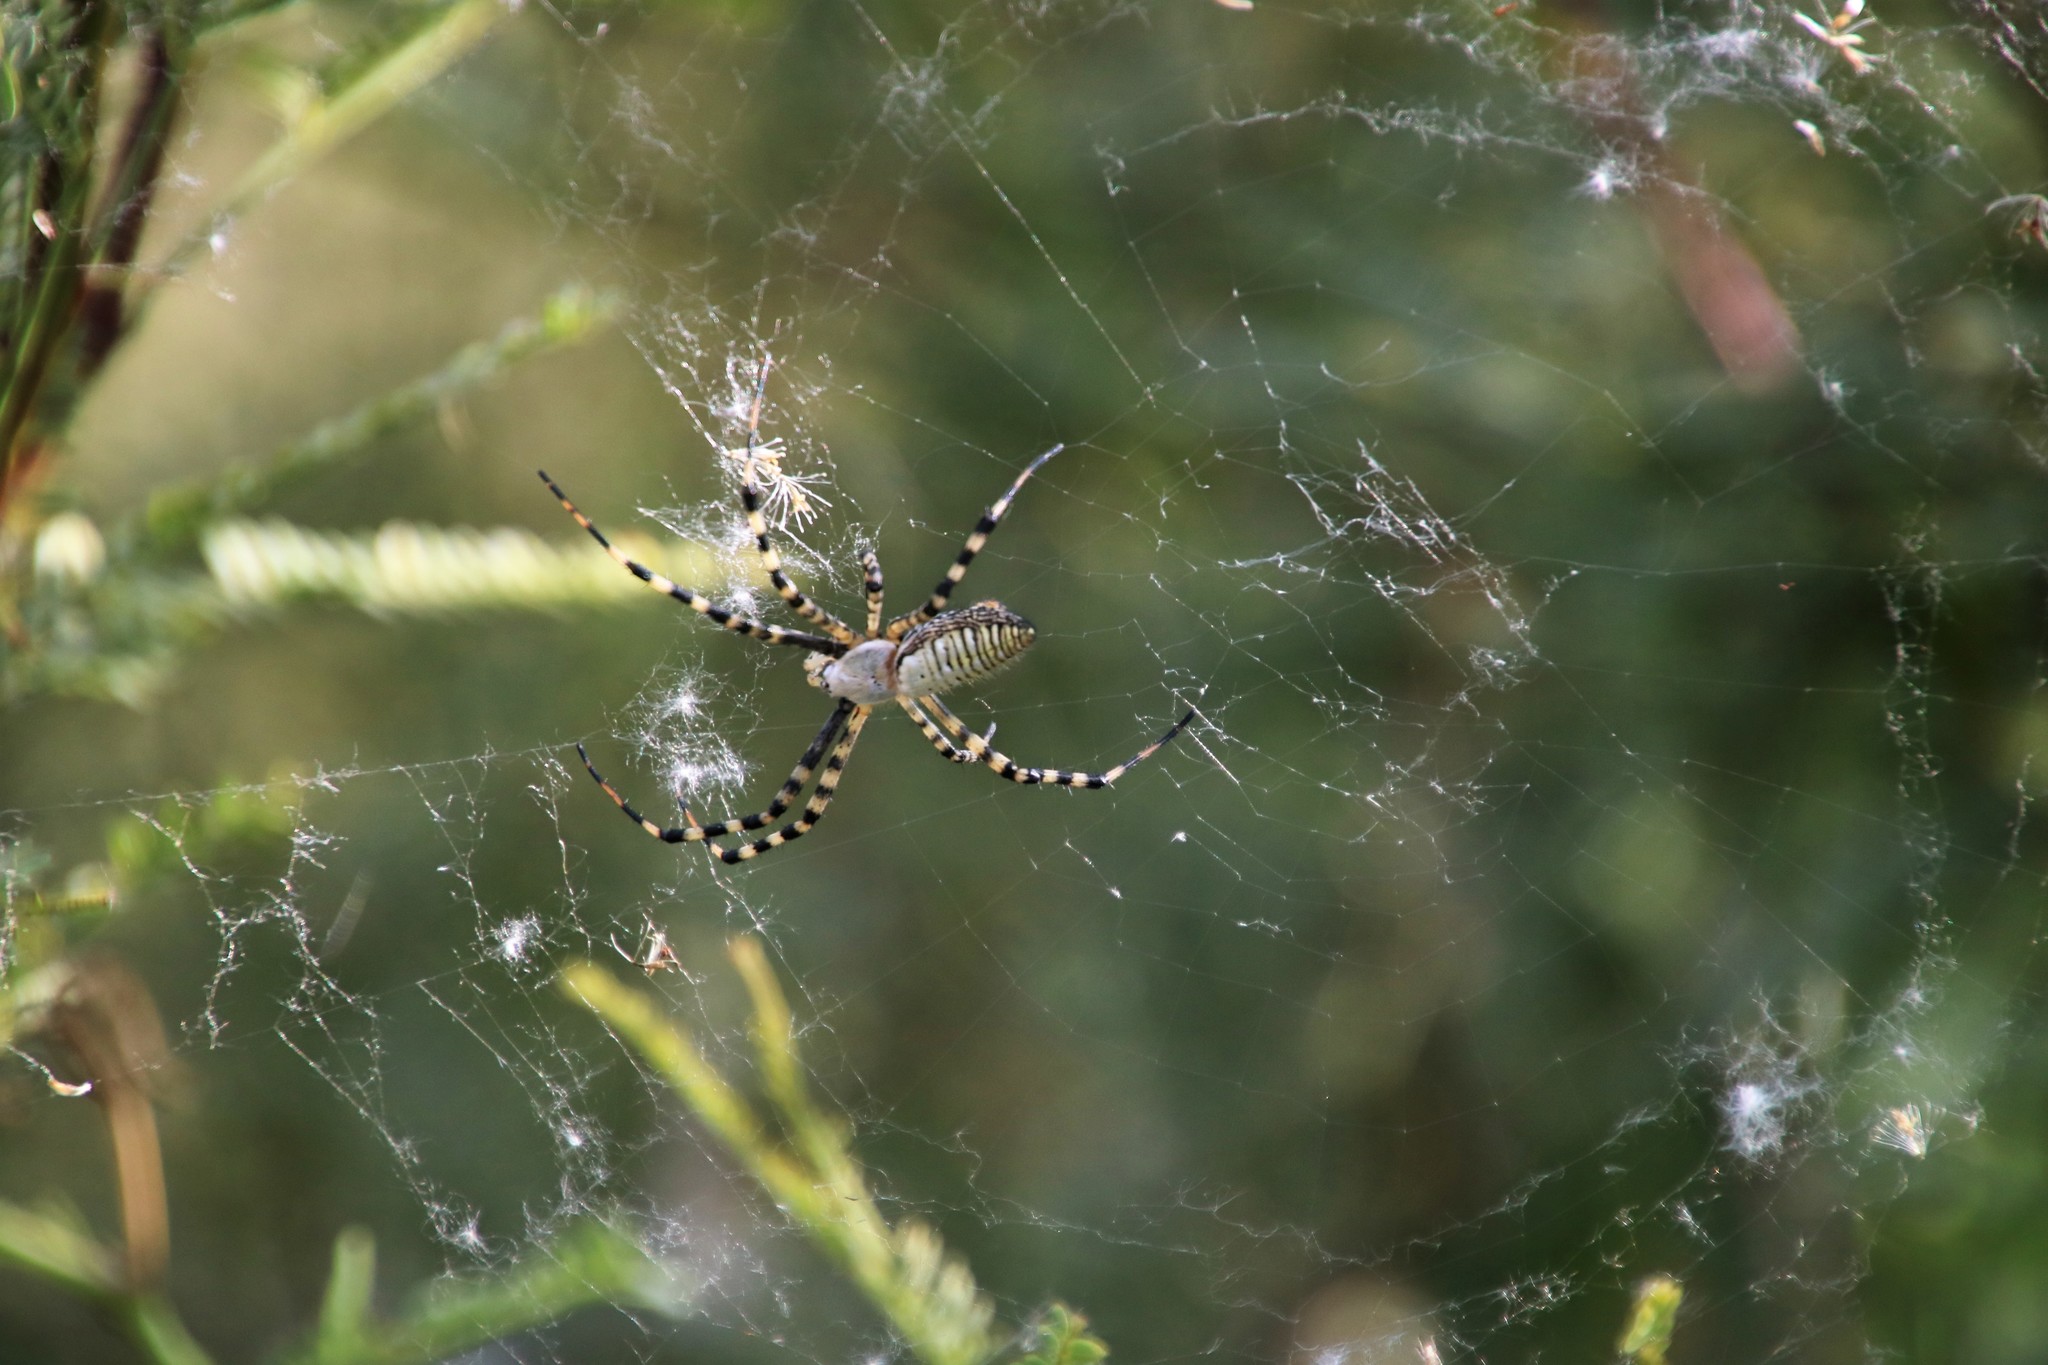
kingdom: Animalia
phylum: Arthropoda
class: Arachnida
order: Araneae
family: Araneidae
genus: Argiope
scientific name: Argiope trifasciata
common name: Banded garden spider
